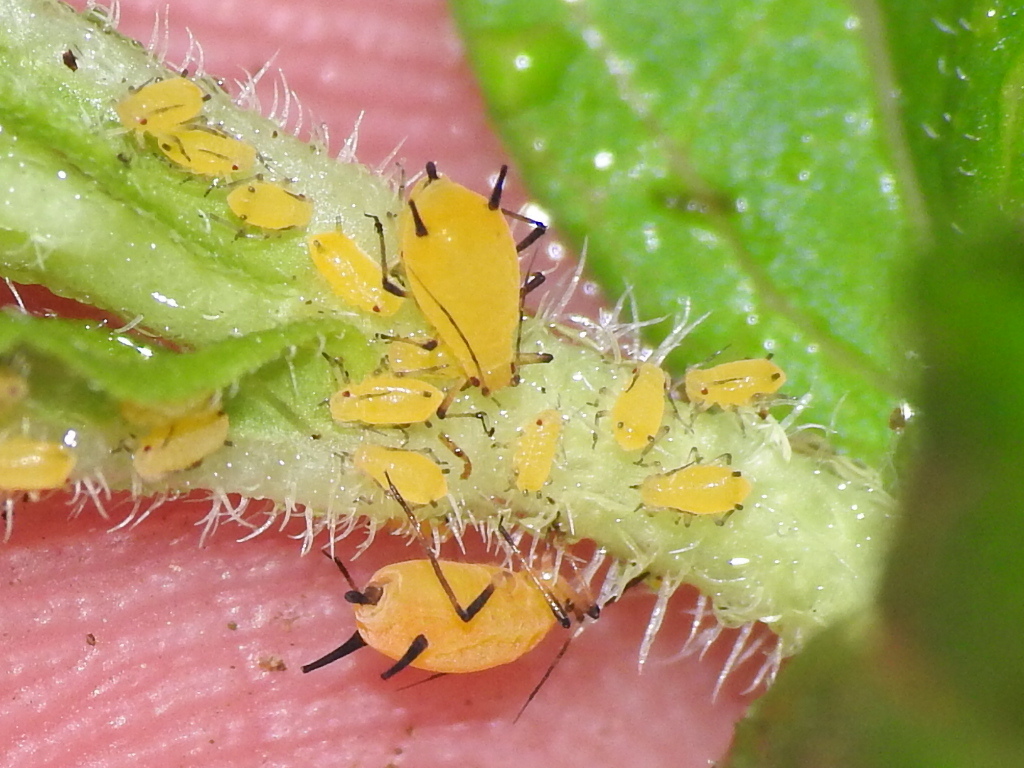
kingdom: Animalia
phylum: Arthropoda
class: Insecta
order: Hemiptera
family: Aphididae
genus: Aphis
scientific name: Aphis nerii
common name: Oleander aphid
